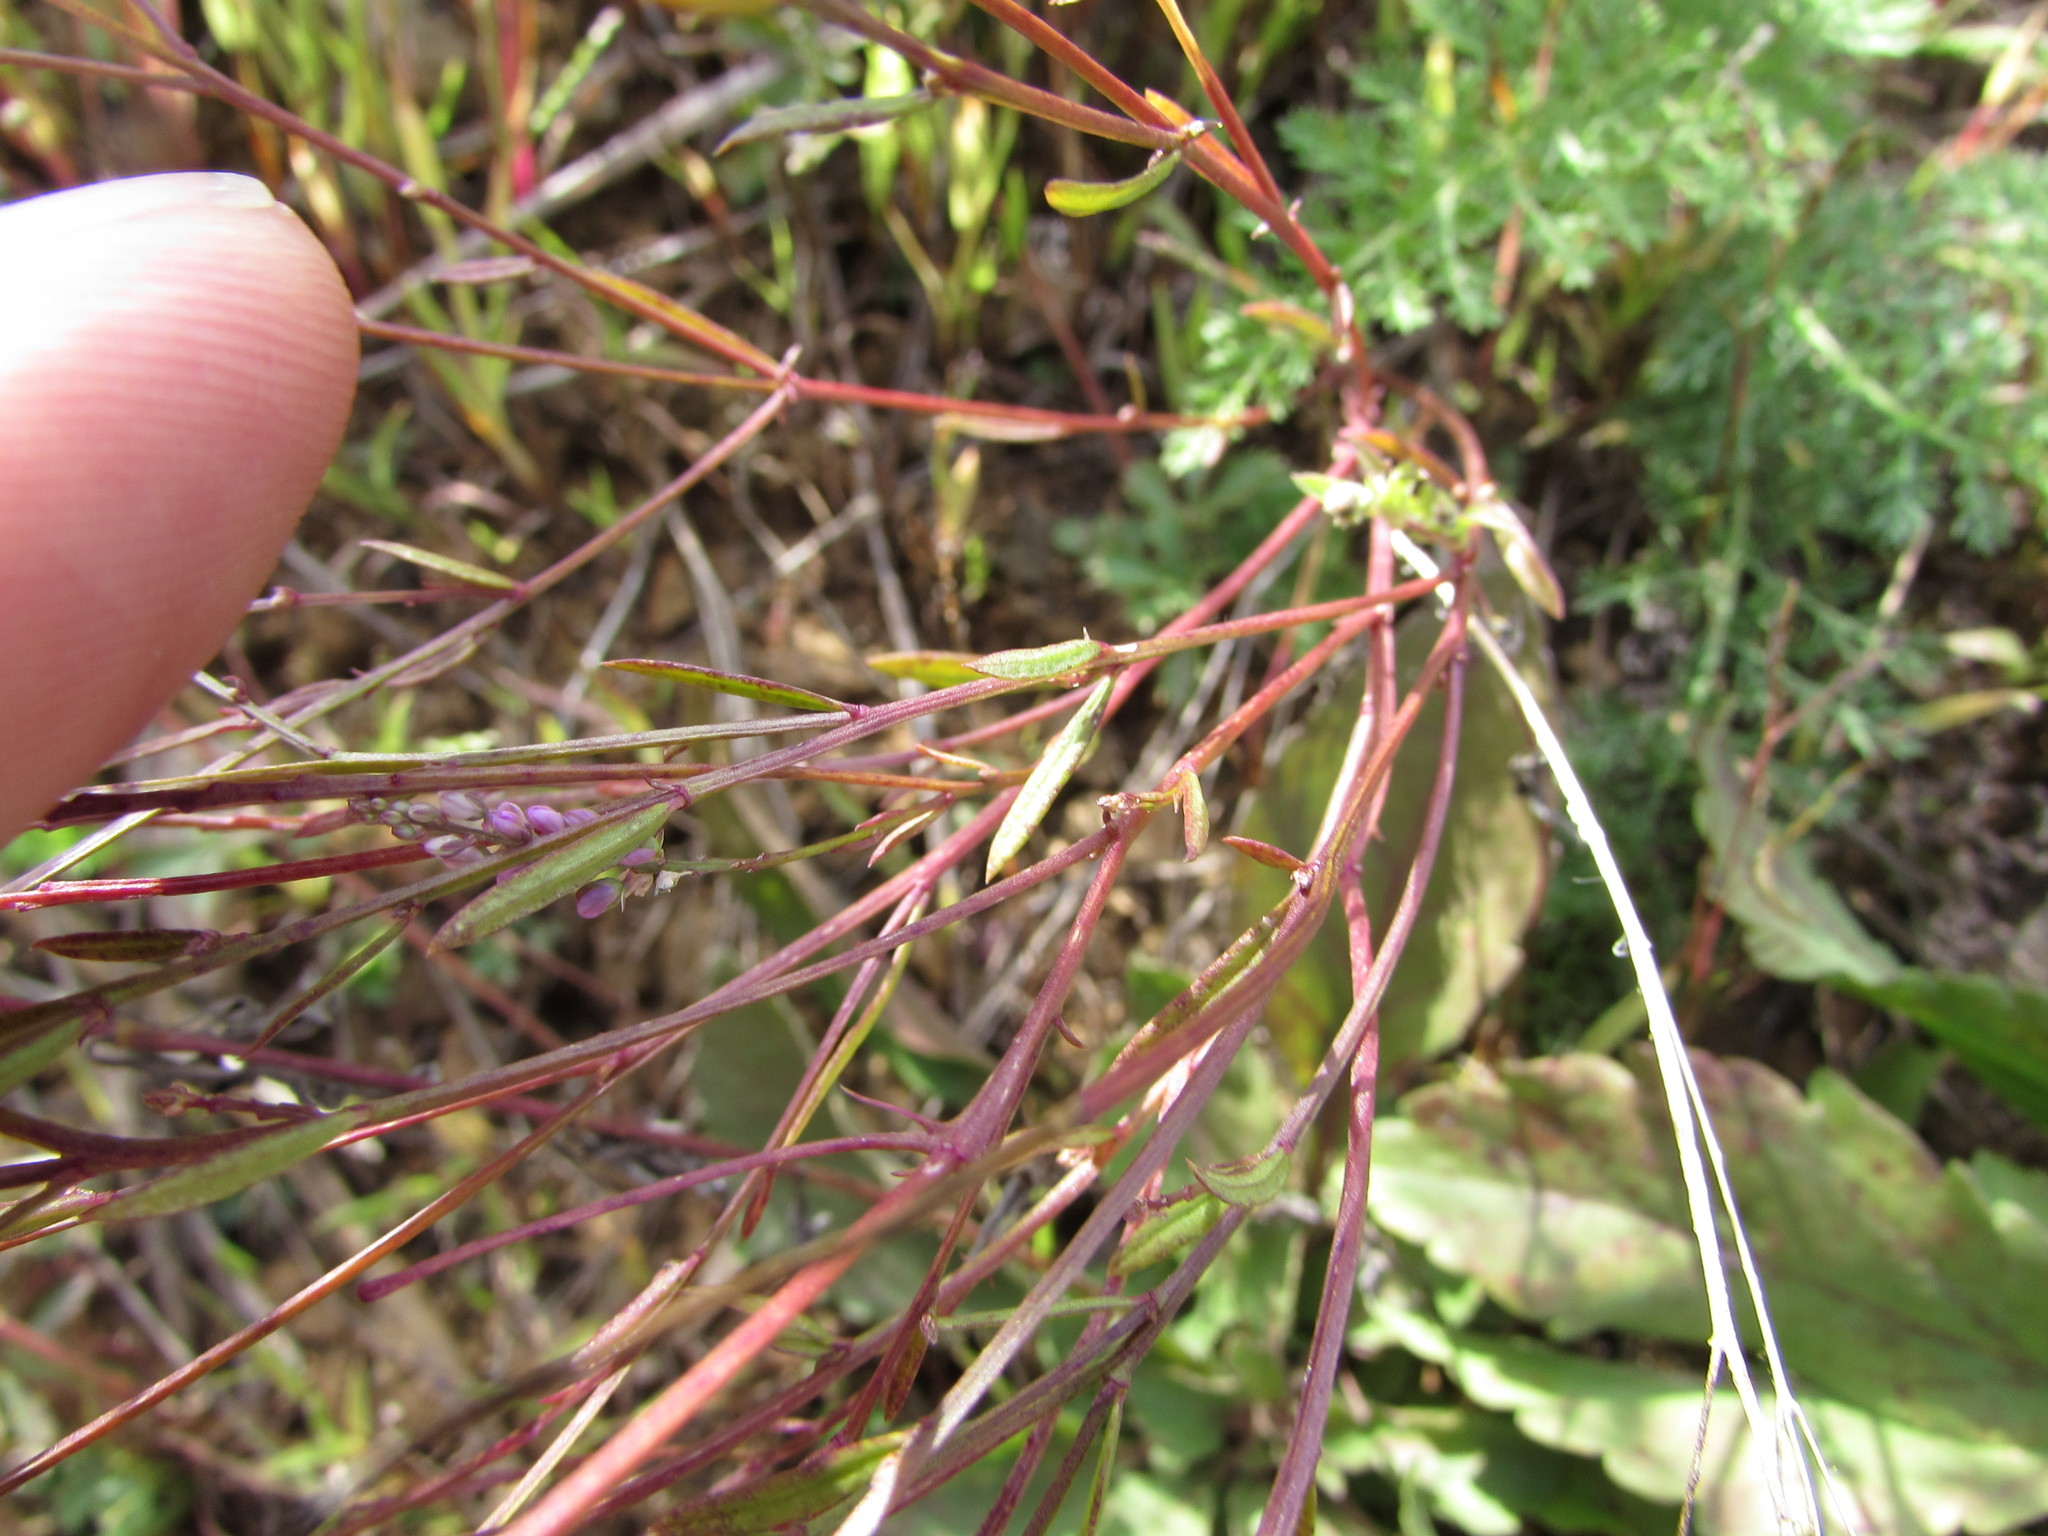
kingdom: Plantae
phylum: Tracheophyta
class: Magnoliopsida
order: Fabales
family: Polygalaceae
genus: Polygala
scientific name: Polygala verticillata
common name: Whorl milkwort
